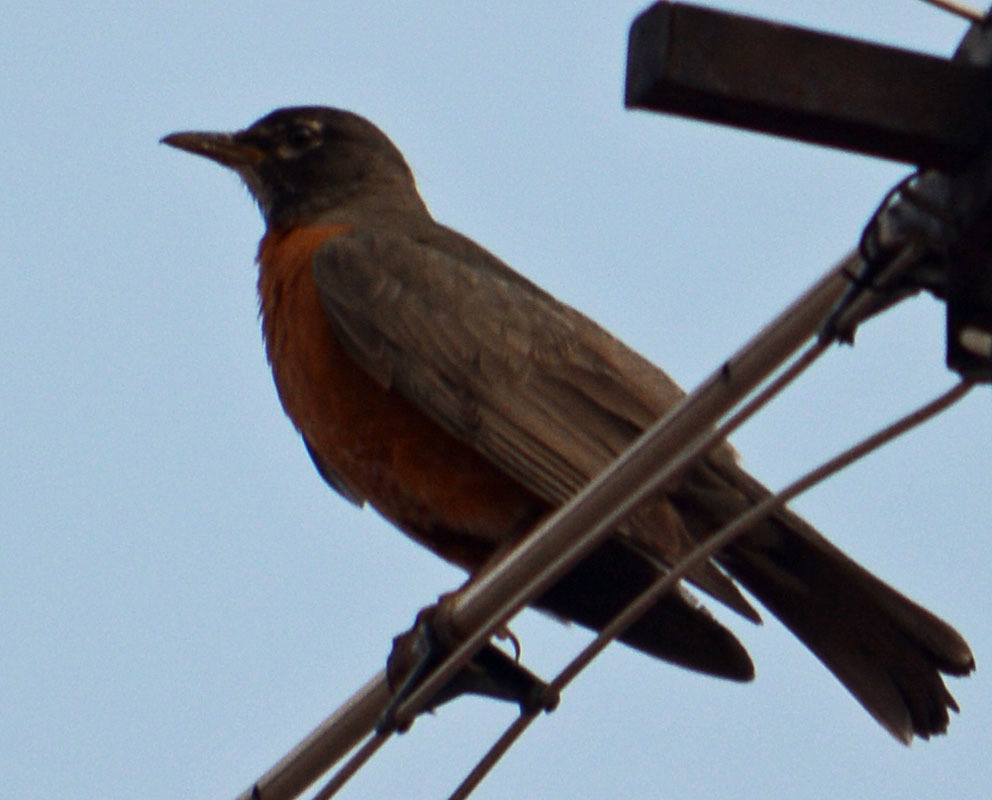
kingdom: Animalia
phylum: Chordata
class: Aves
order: Passeriformes
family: Turdidae
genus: Turdus
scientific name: Turdus migratorius
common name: American robin
